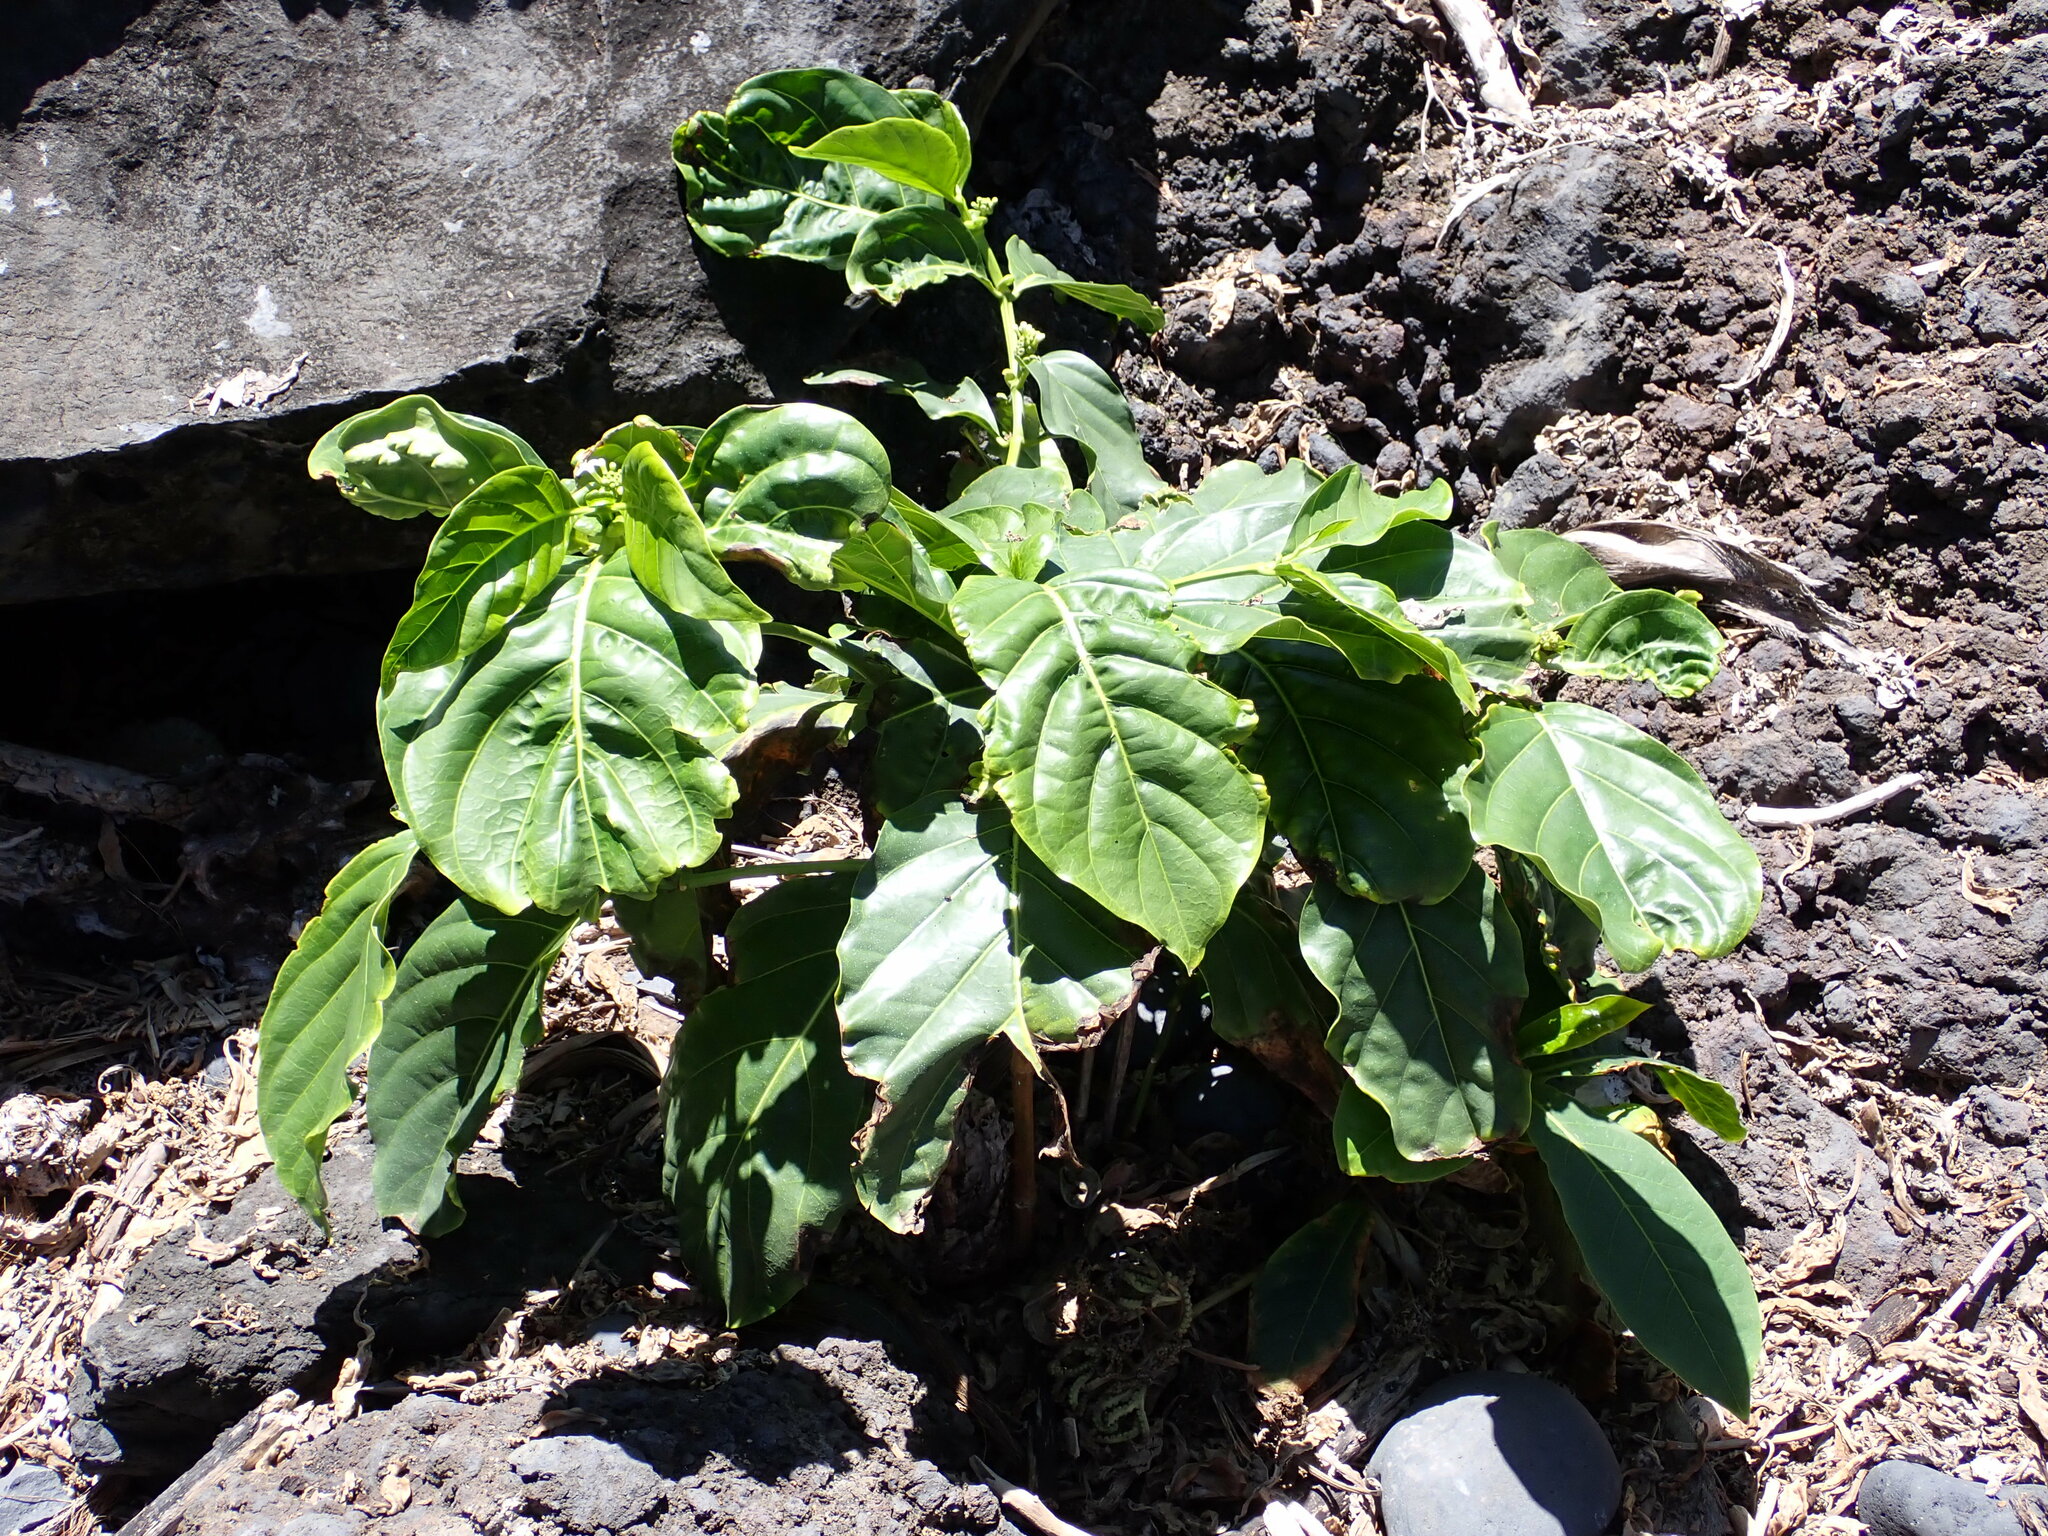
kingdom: Plantae
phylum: Tracheophyta
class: Magnoliopsida
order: Gentianales
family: Rubiaceae
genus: Morinda
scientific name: Morinda citrifolia
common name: Indian-mulberry
